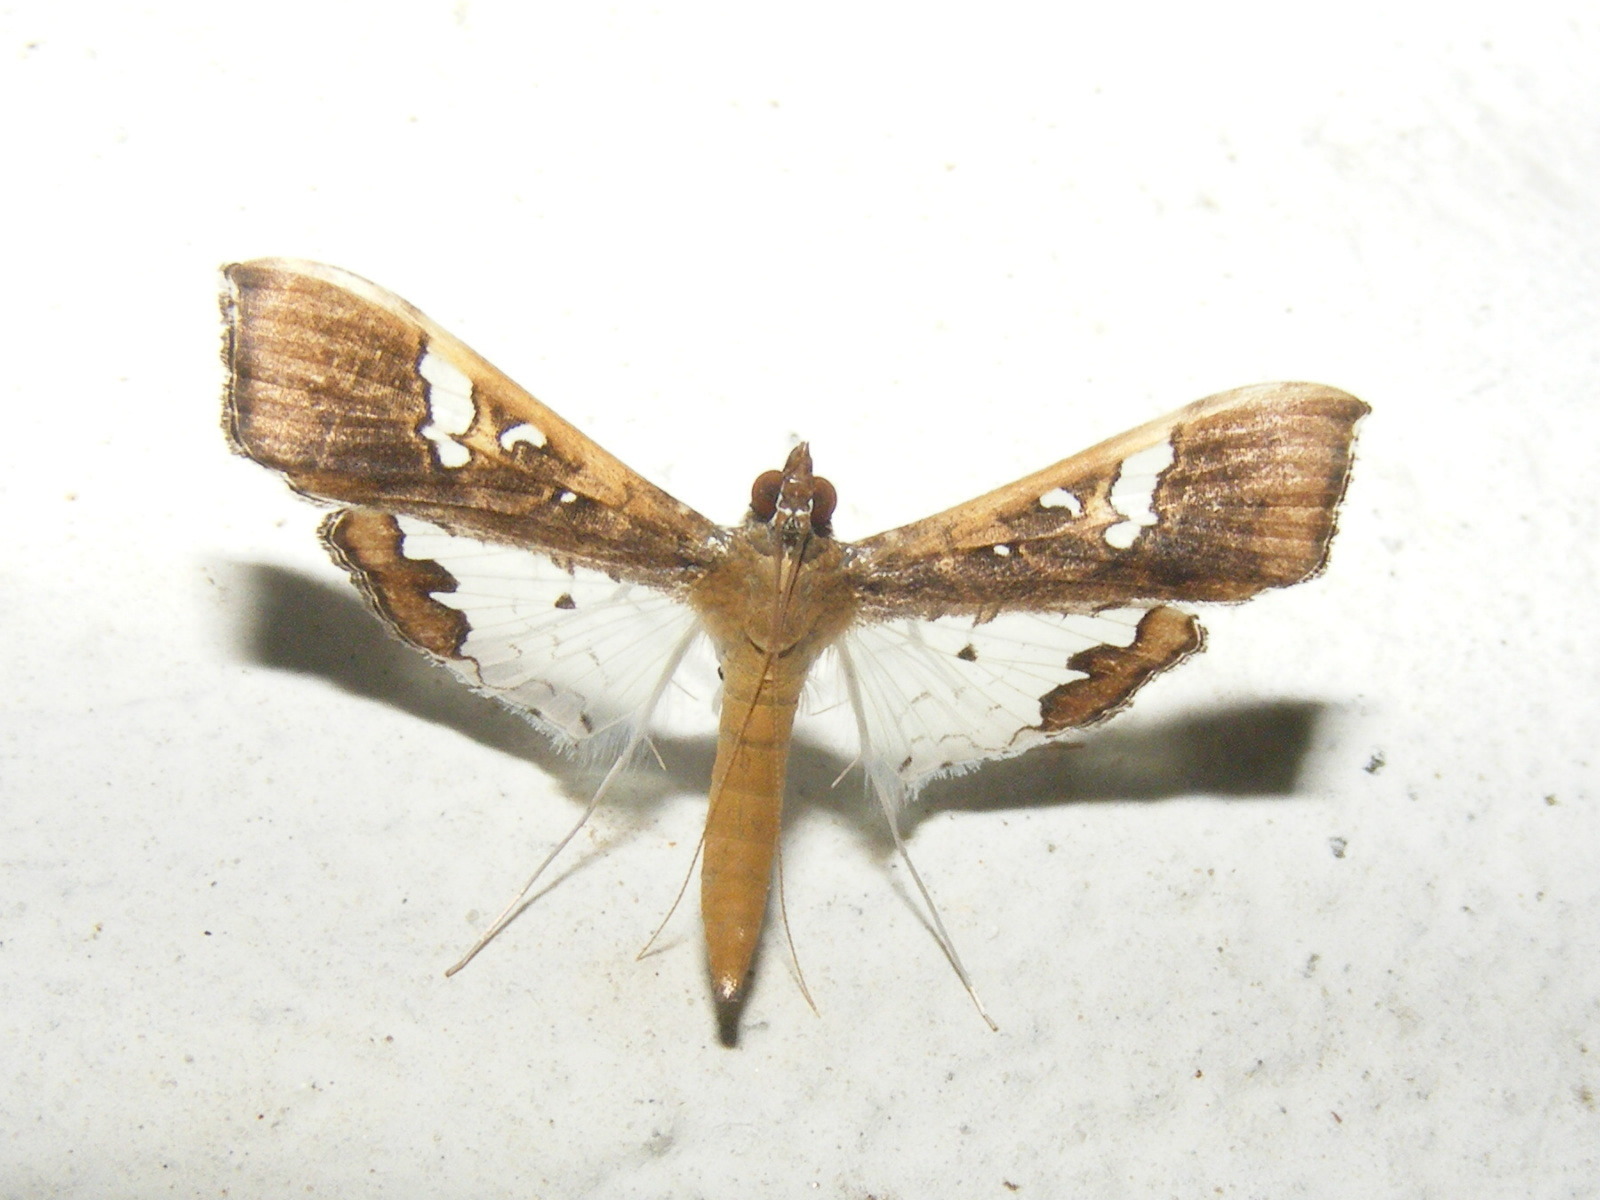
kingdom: Animalia
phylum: Arthropoda
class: Insecta
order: Lepidoptera
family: Crambidae
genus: Maruca
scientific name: Maruca vitrata
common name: Maruca pod borer
